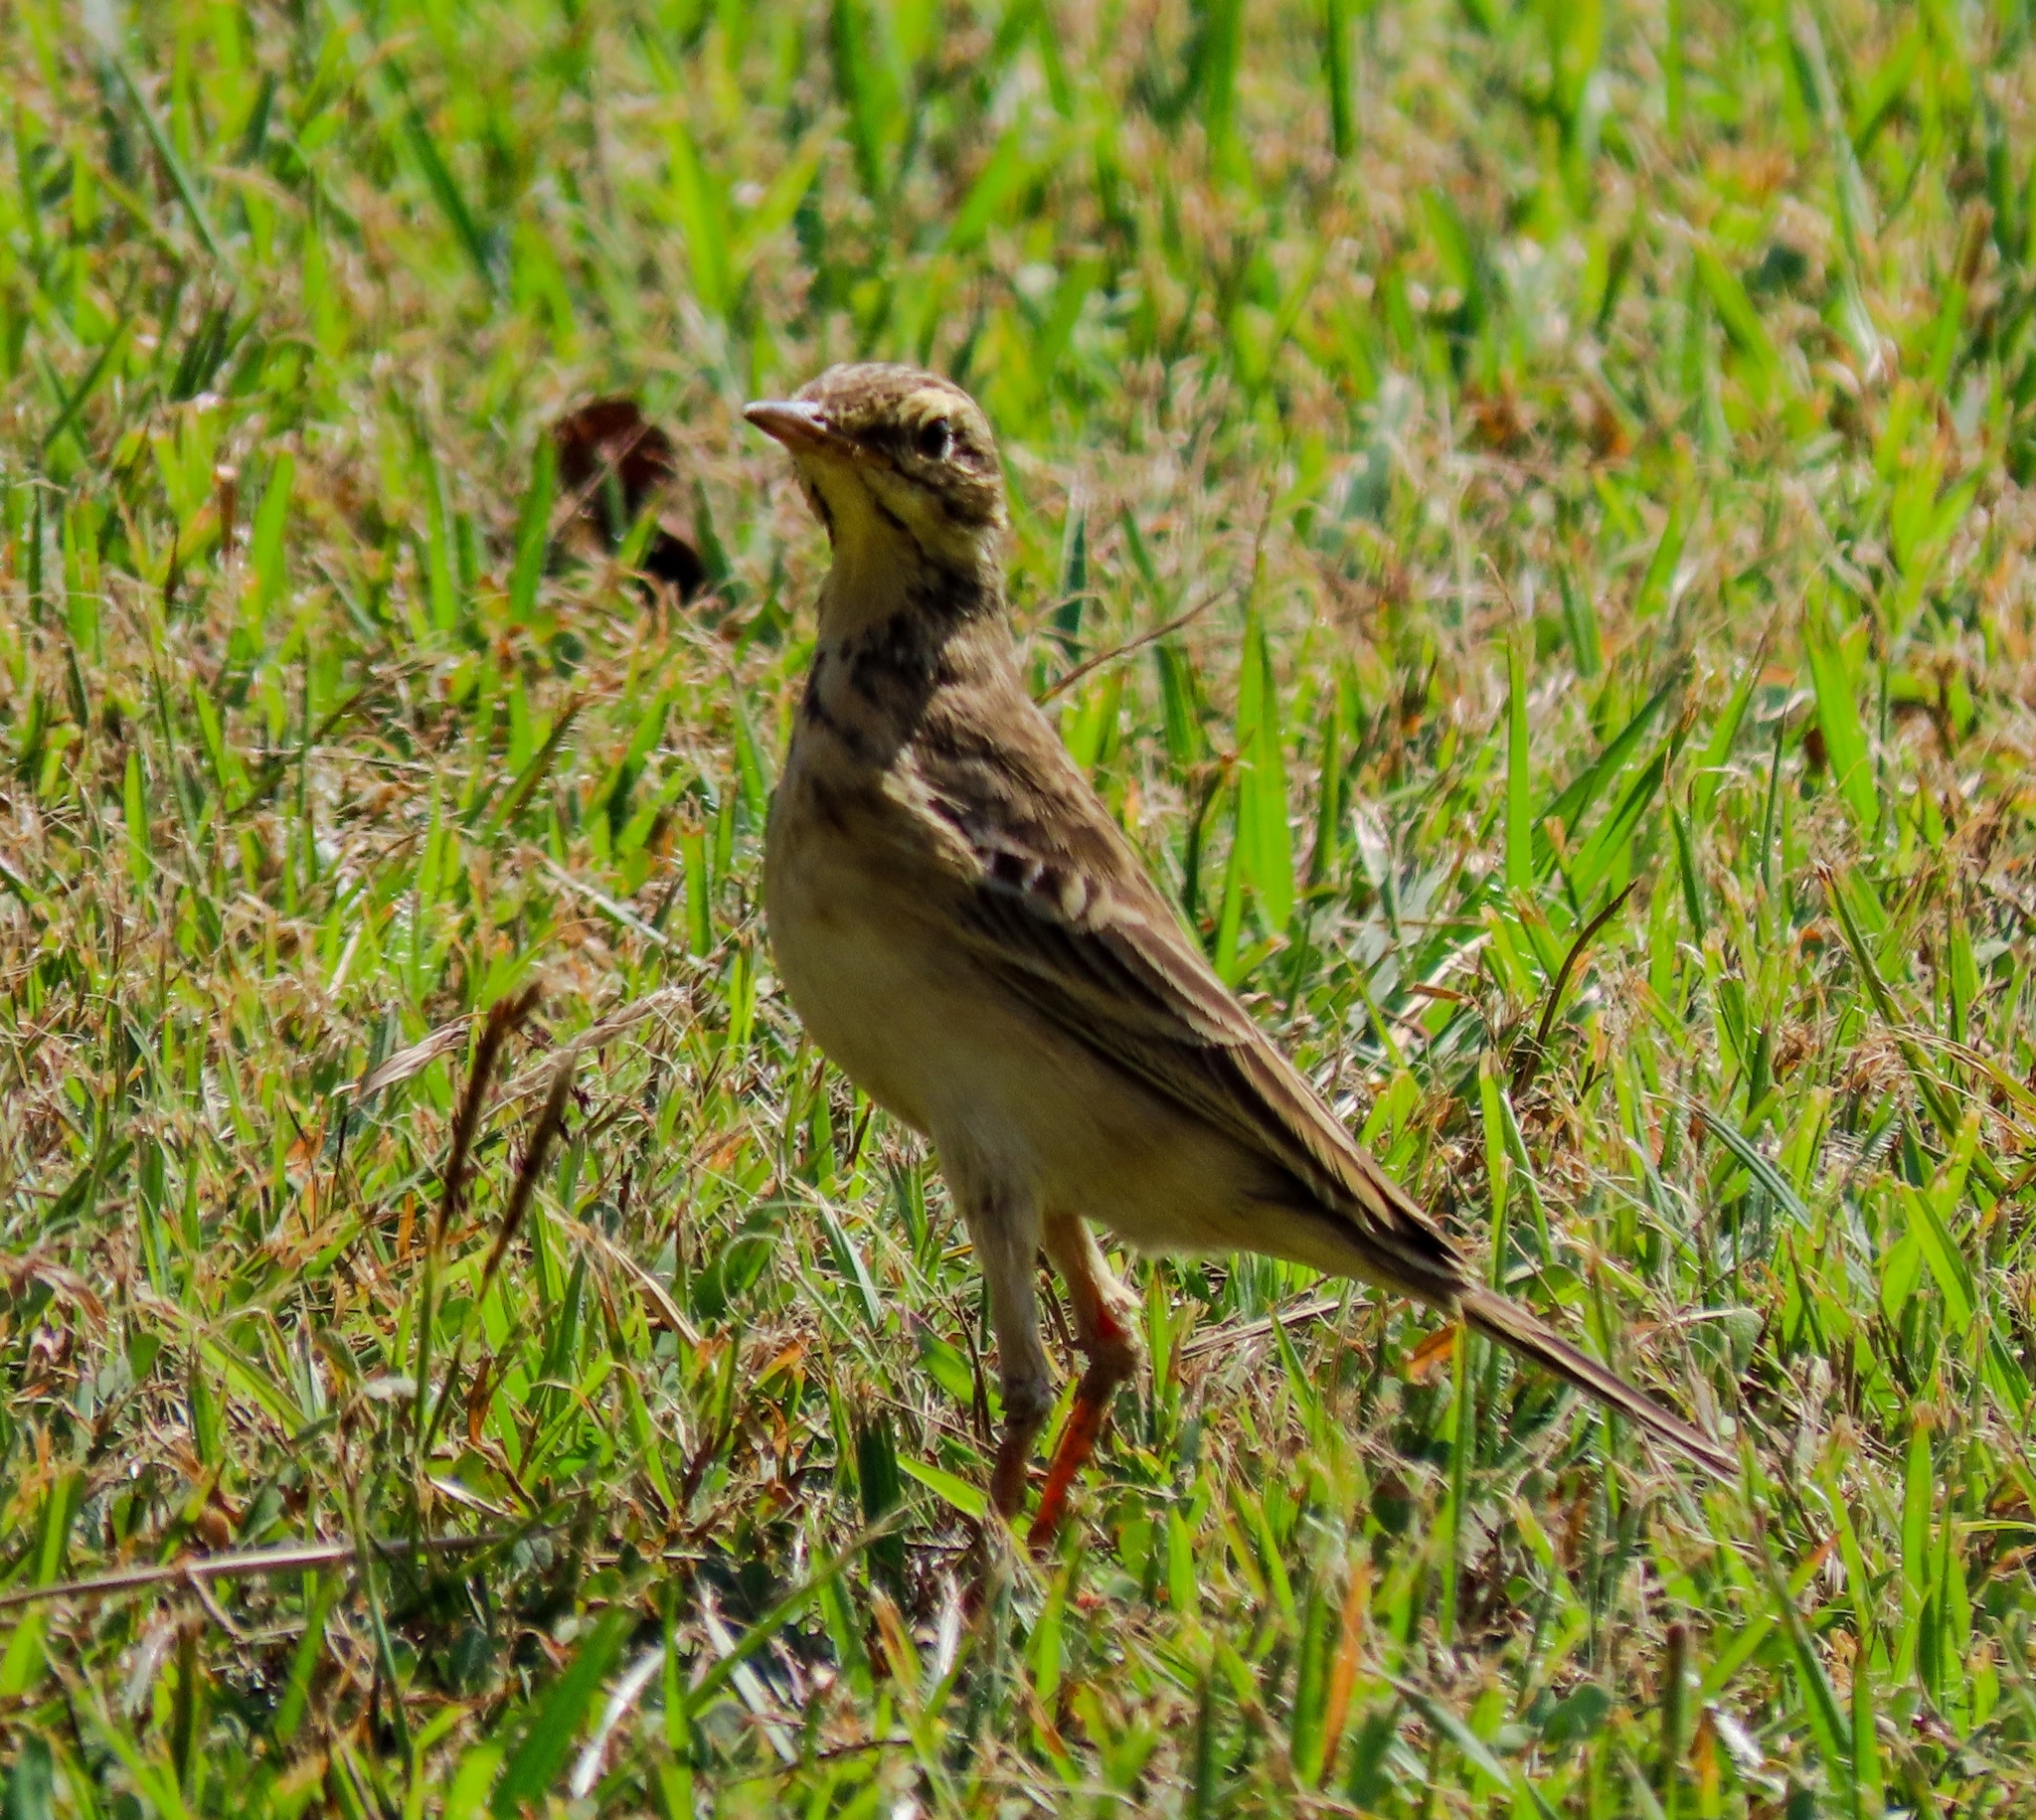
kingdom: Animalia
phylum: Chordata
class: Aves
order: Passeriformes
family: Motacillidae
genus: Anthus
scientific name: Anthus rufulus
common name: Paddyfield pipit
